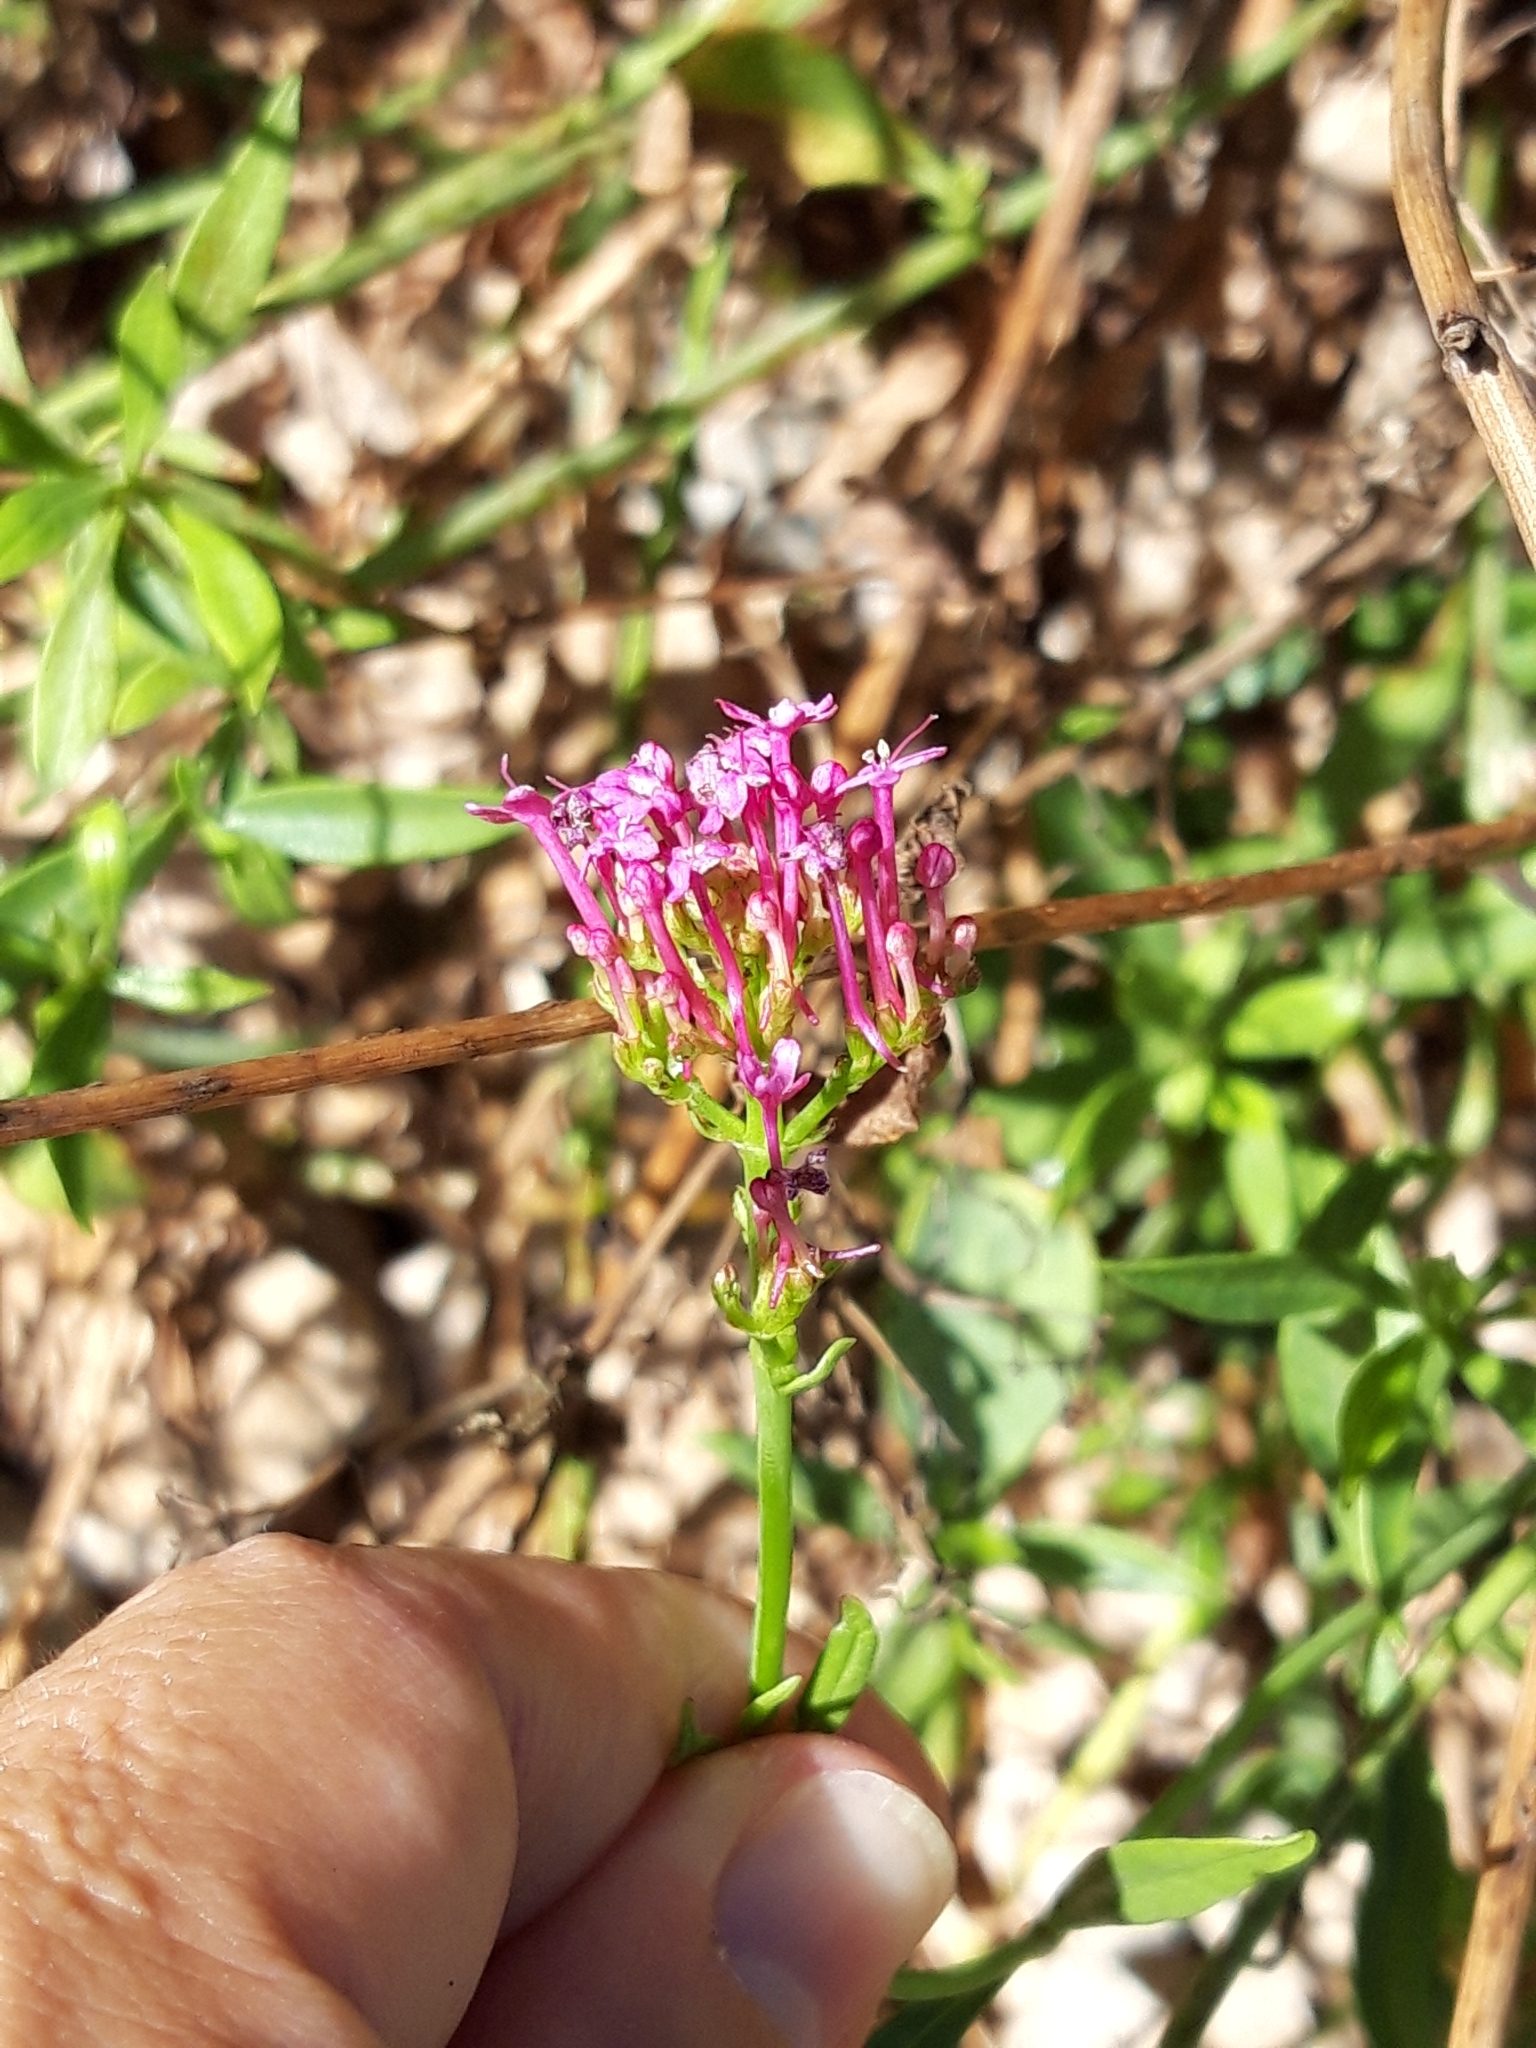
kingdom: Plantae
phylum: Tracheophyta
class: Magnoliopsida
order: Dipsacales
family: Caprifoliaceae
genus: Centranthus
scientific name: Centranthus ruber
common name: Red valerian
